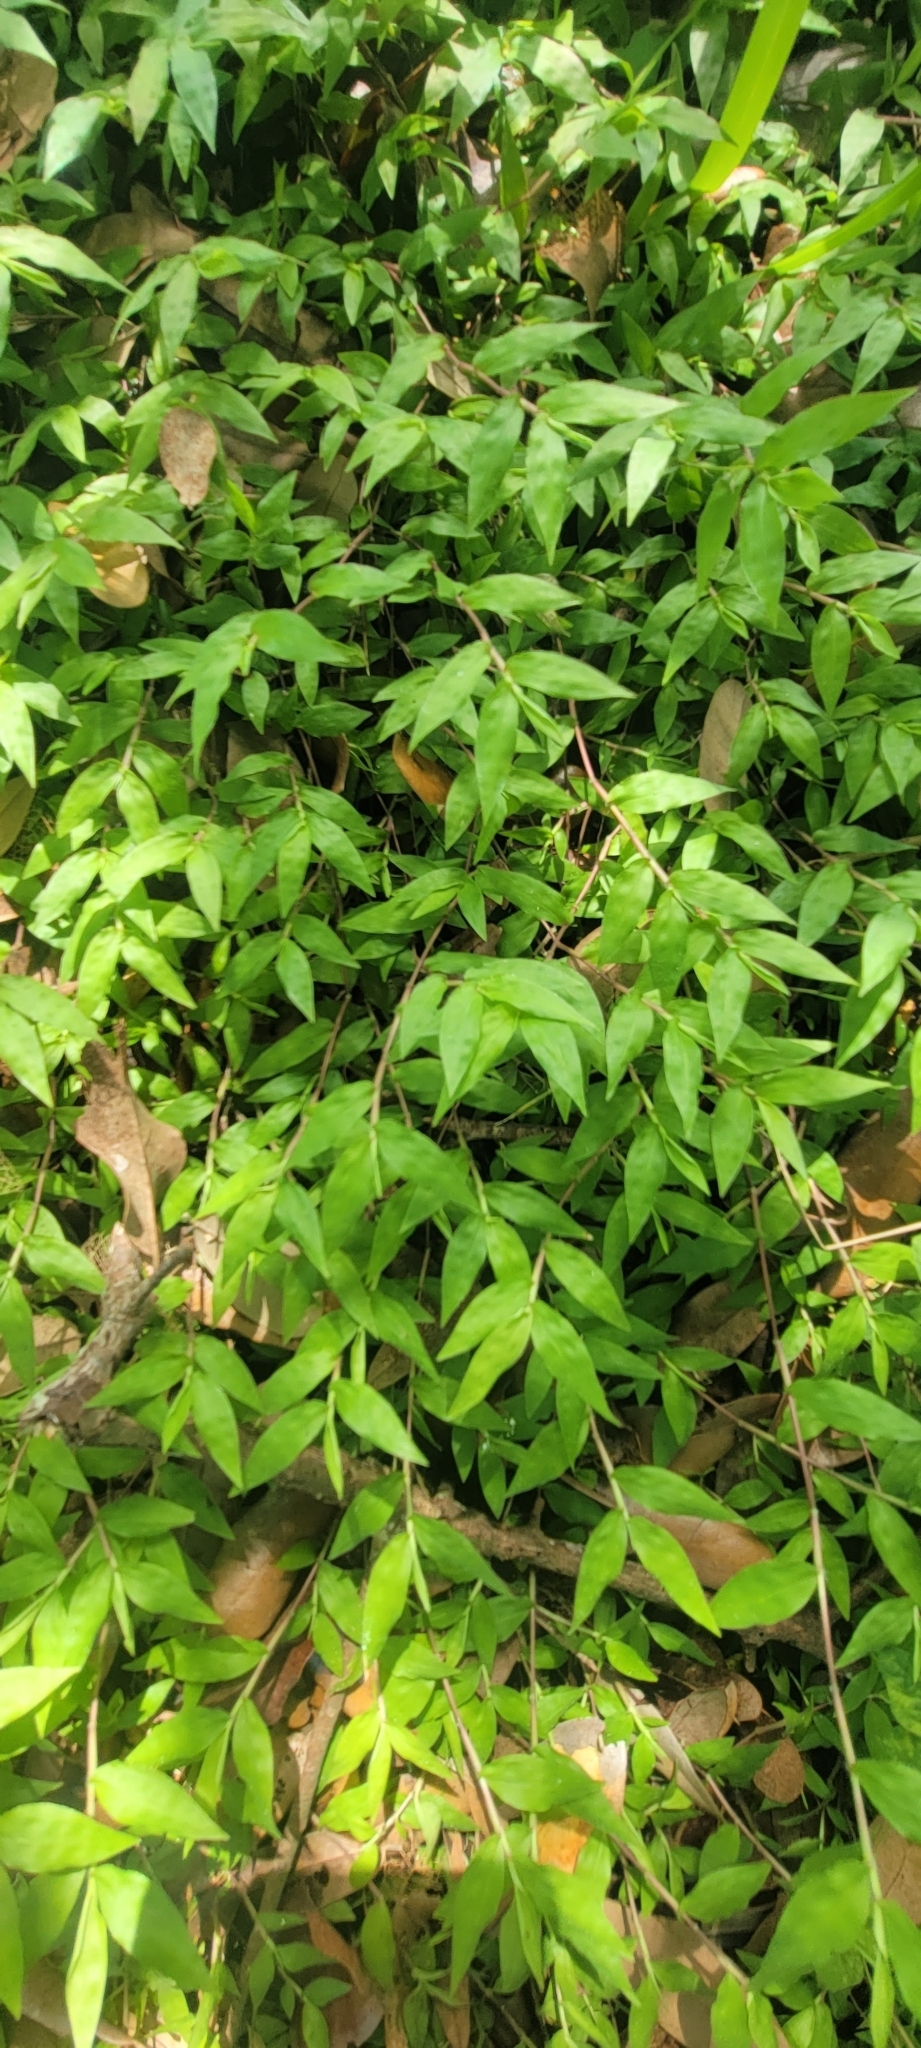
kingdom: Plantae
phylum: Tracheophyta
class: Liliopsida
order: Poales
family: Poaceae
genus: Oplismenus
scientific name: Oplismenus hirtellus
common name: Basketgrass
